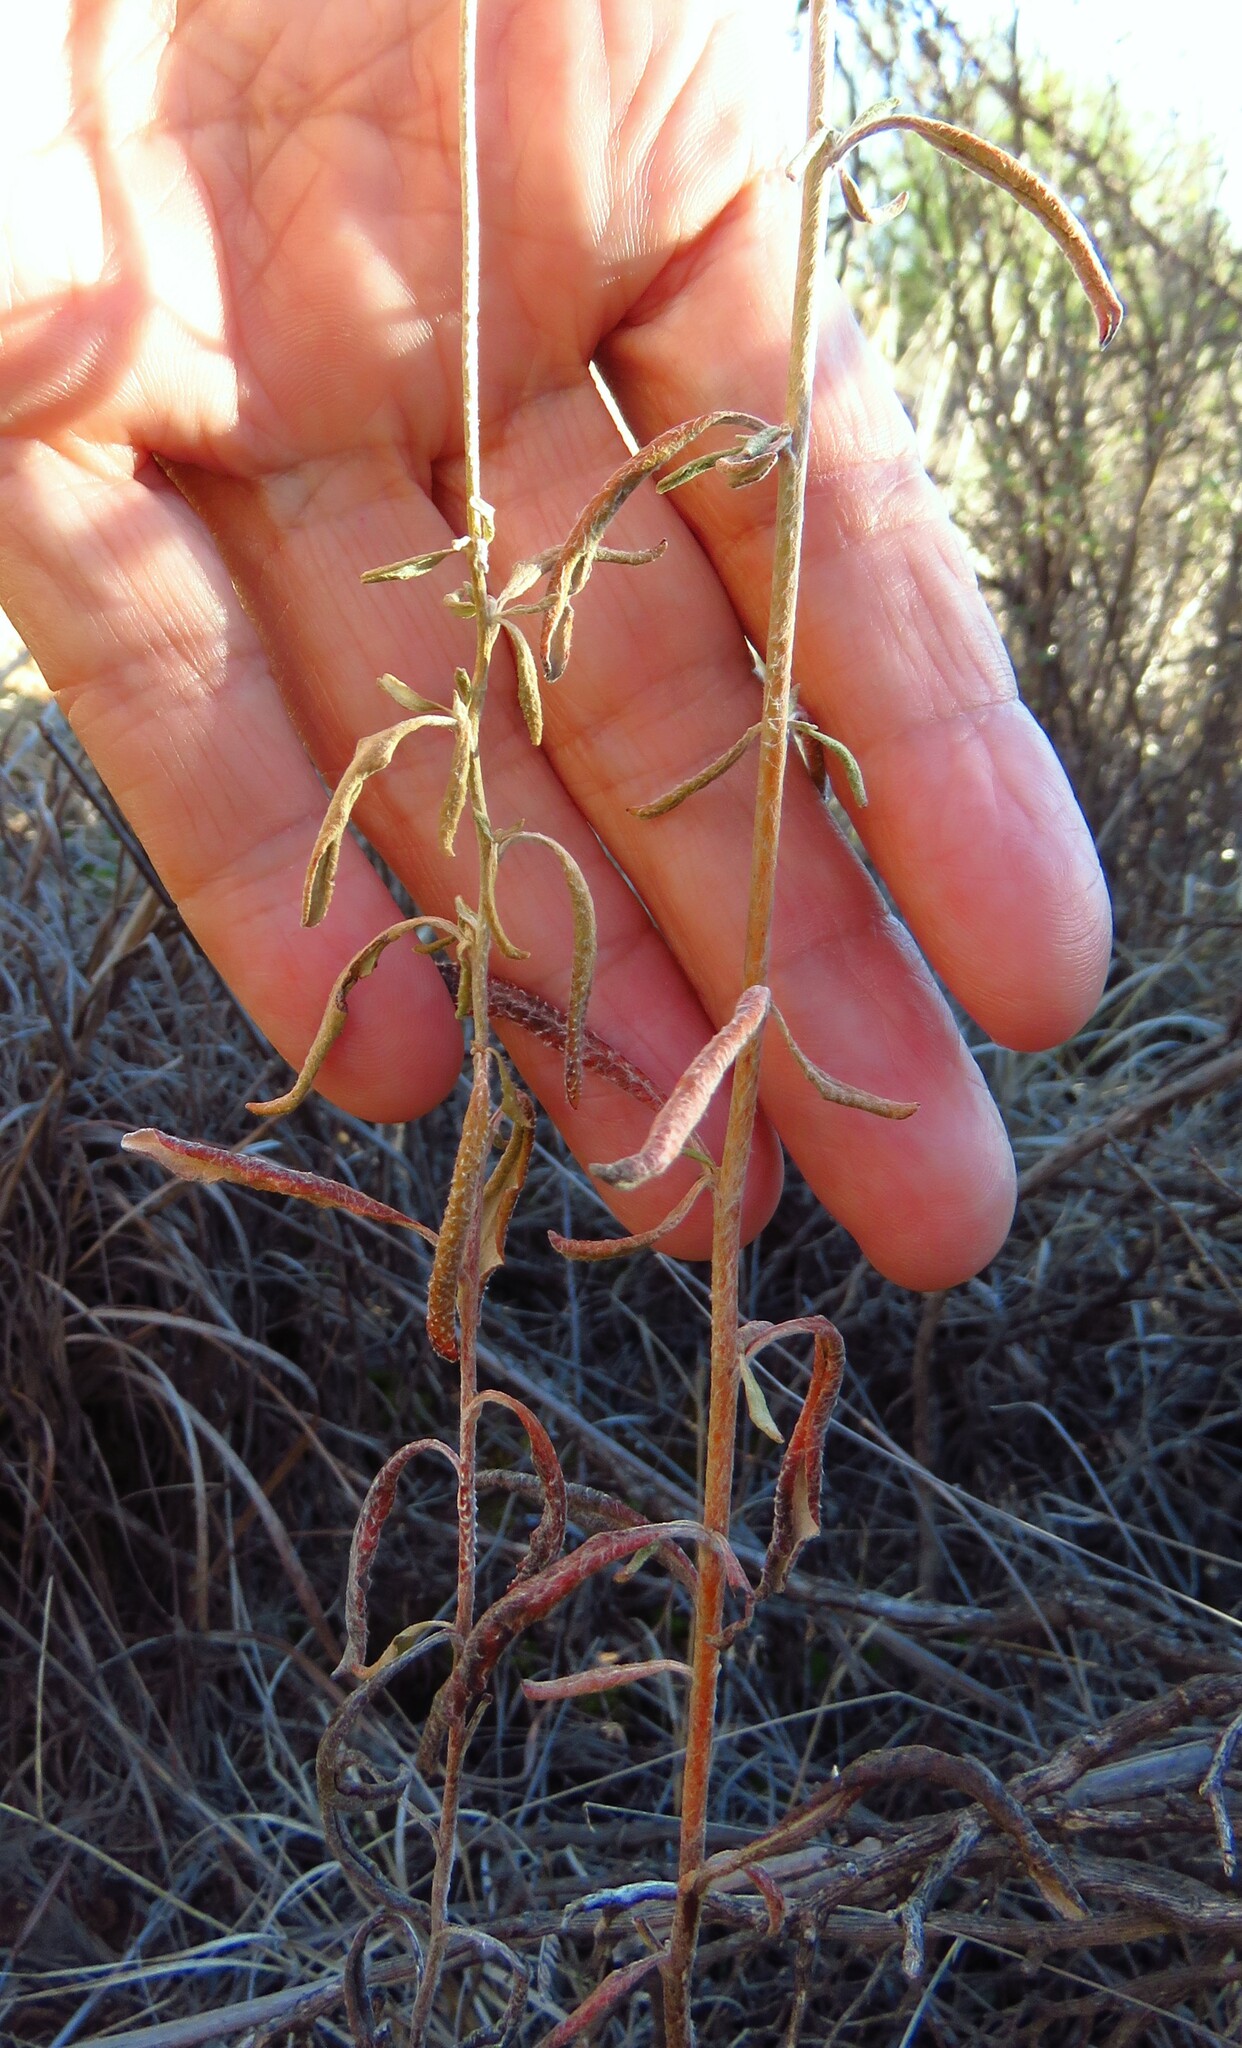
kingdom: Plantae
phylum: Tracheophyta
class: Magnoliopsida
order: Caryophyllales
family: Polygonaceae
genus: Eriogonum
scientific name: Eriogonum annuum
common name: Annual wild buckwheat
